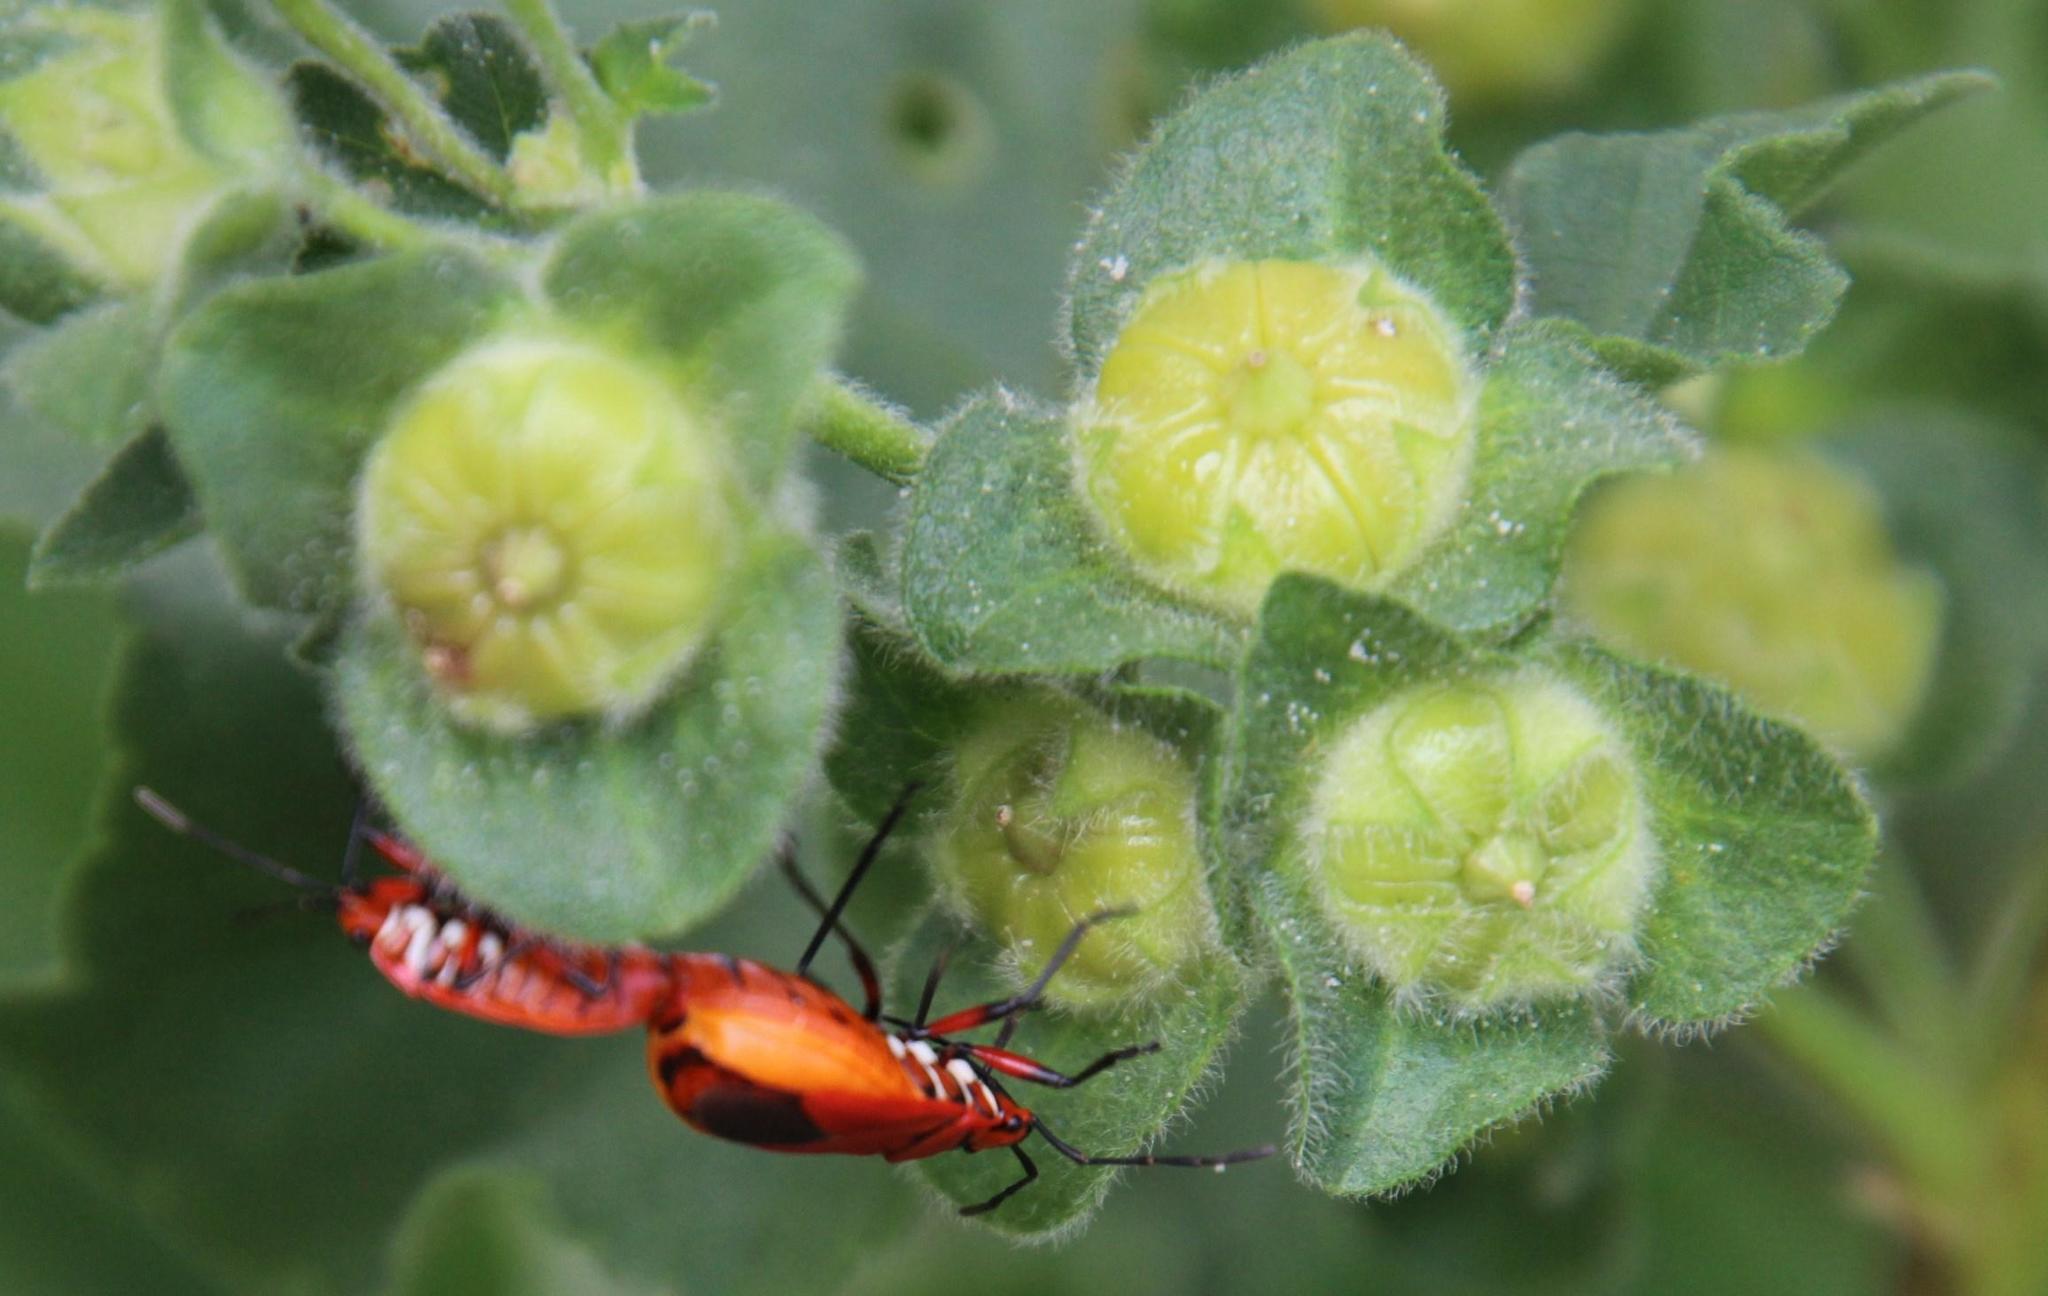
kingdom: Plantae
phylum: Tracheophyta
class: Magnoliopsida
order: Malvales
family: Malvaceae
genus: Malva
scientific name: Malva arborea
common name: Tree mallow
